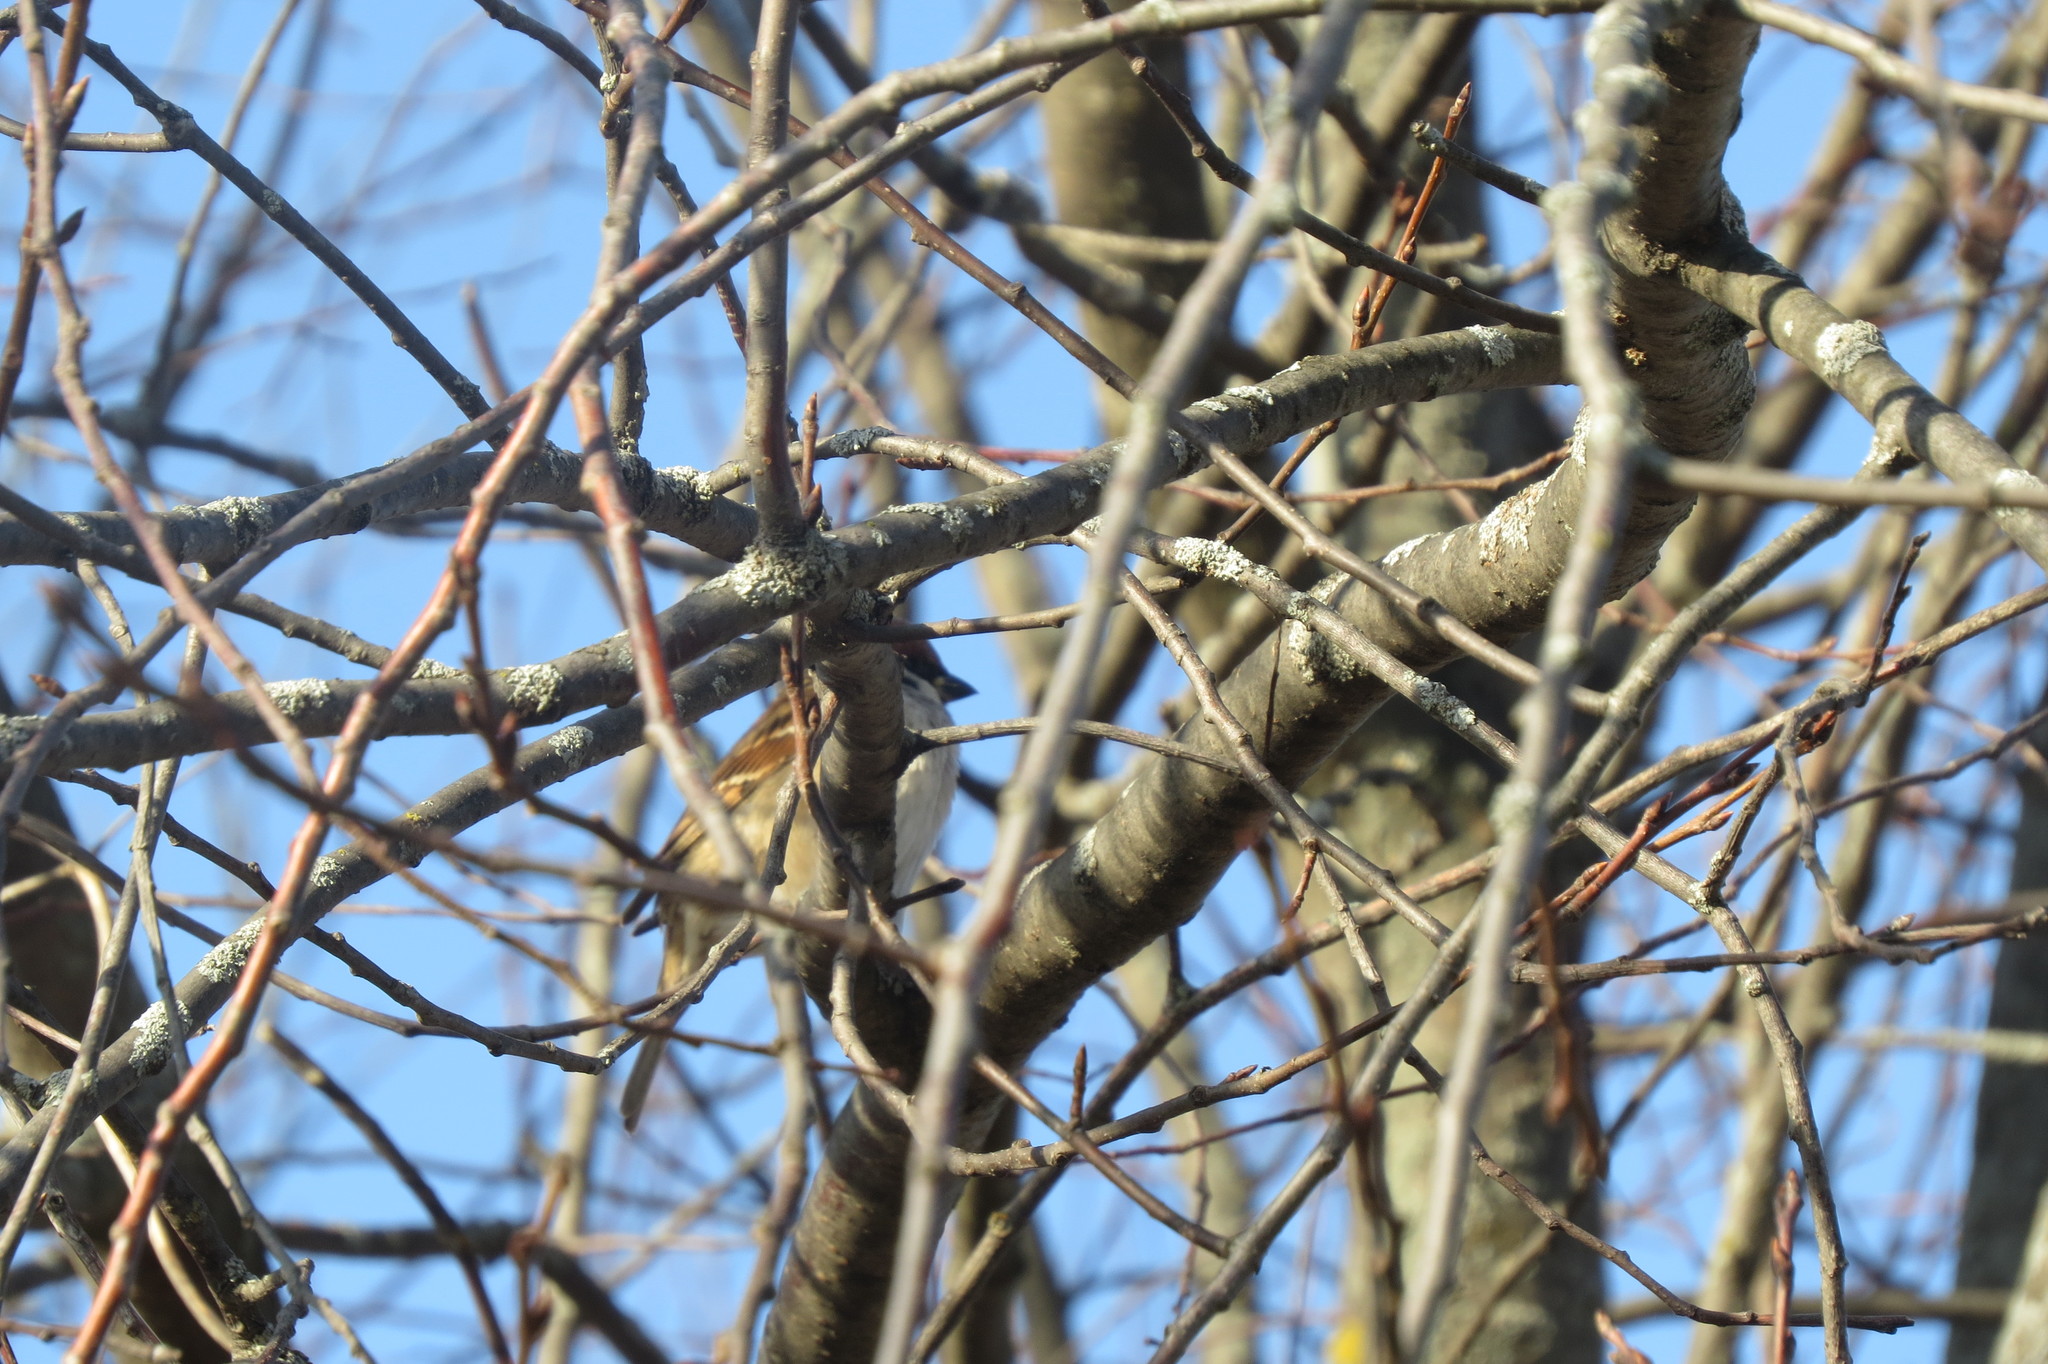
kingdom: Animalia
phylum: Chordata
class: Aves
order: Passeriformes
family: Passeridae
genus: Passer
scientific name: Passer montanus
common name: Eurasian tree sparrow
